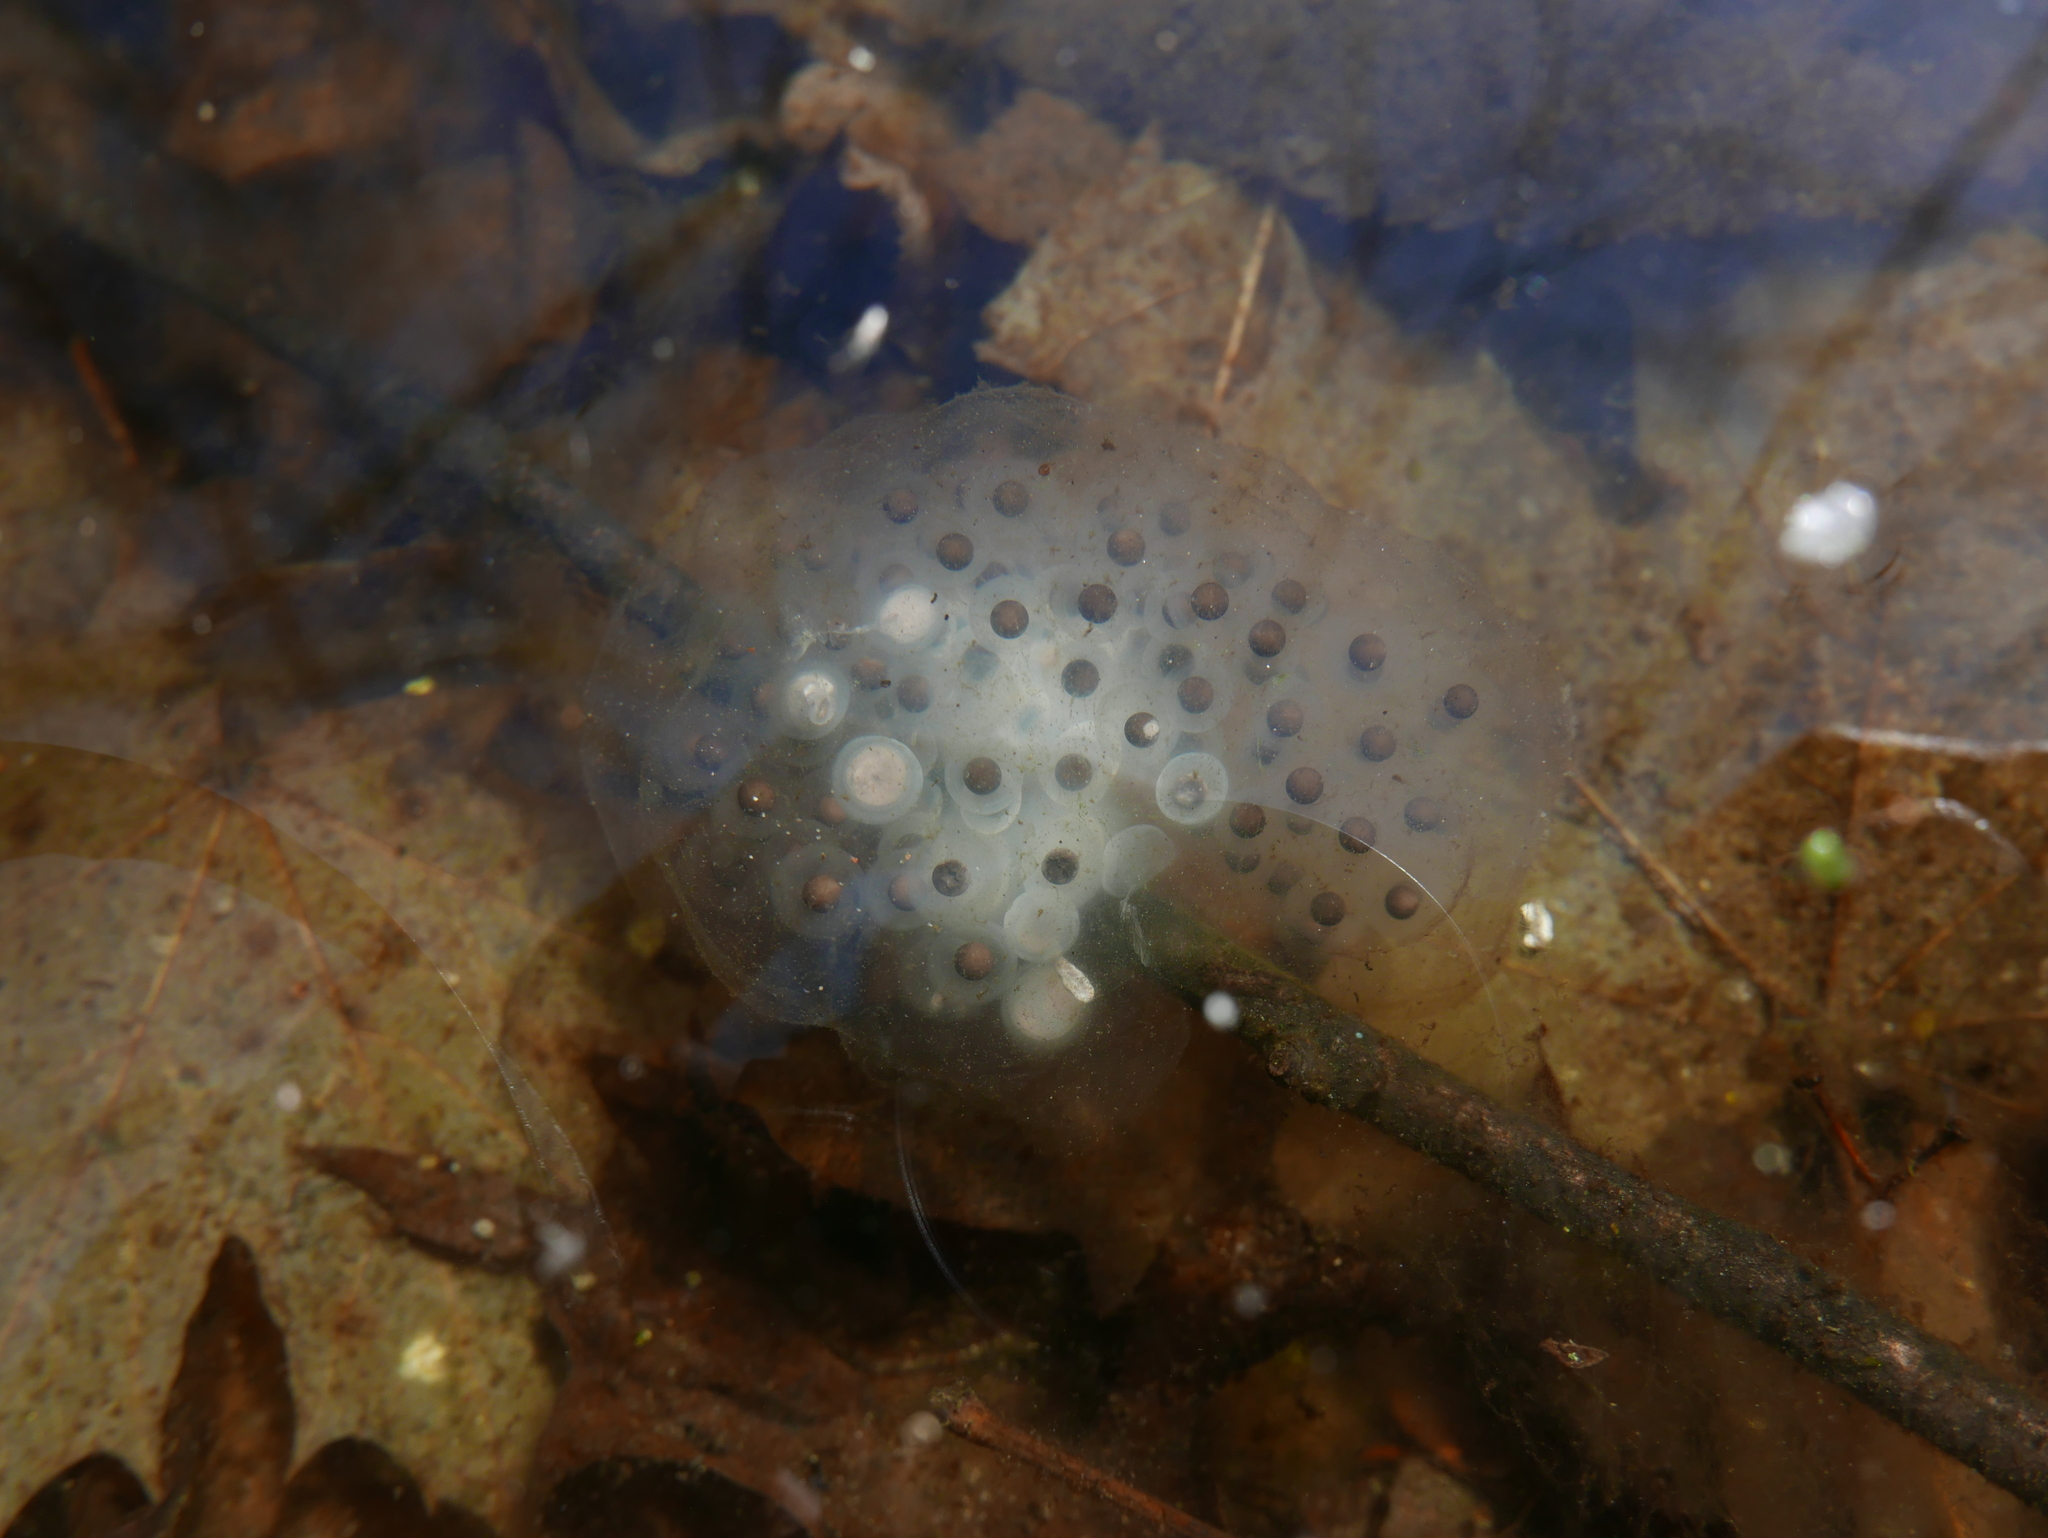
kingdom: Animalia
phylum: Chordata
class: Amphibia
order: Caudata
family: Ambystomatidae
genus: Ambystoma
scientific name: Ambystoma maculatum
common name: Spotted salamander
